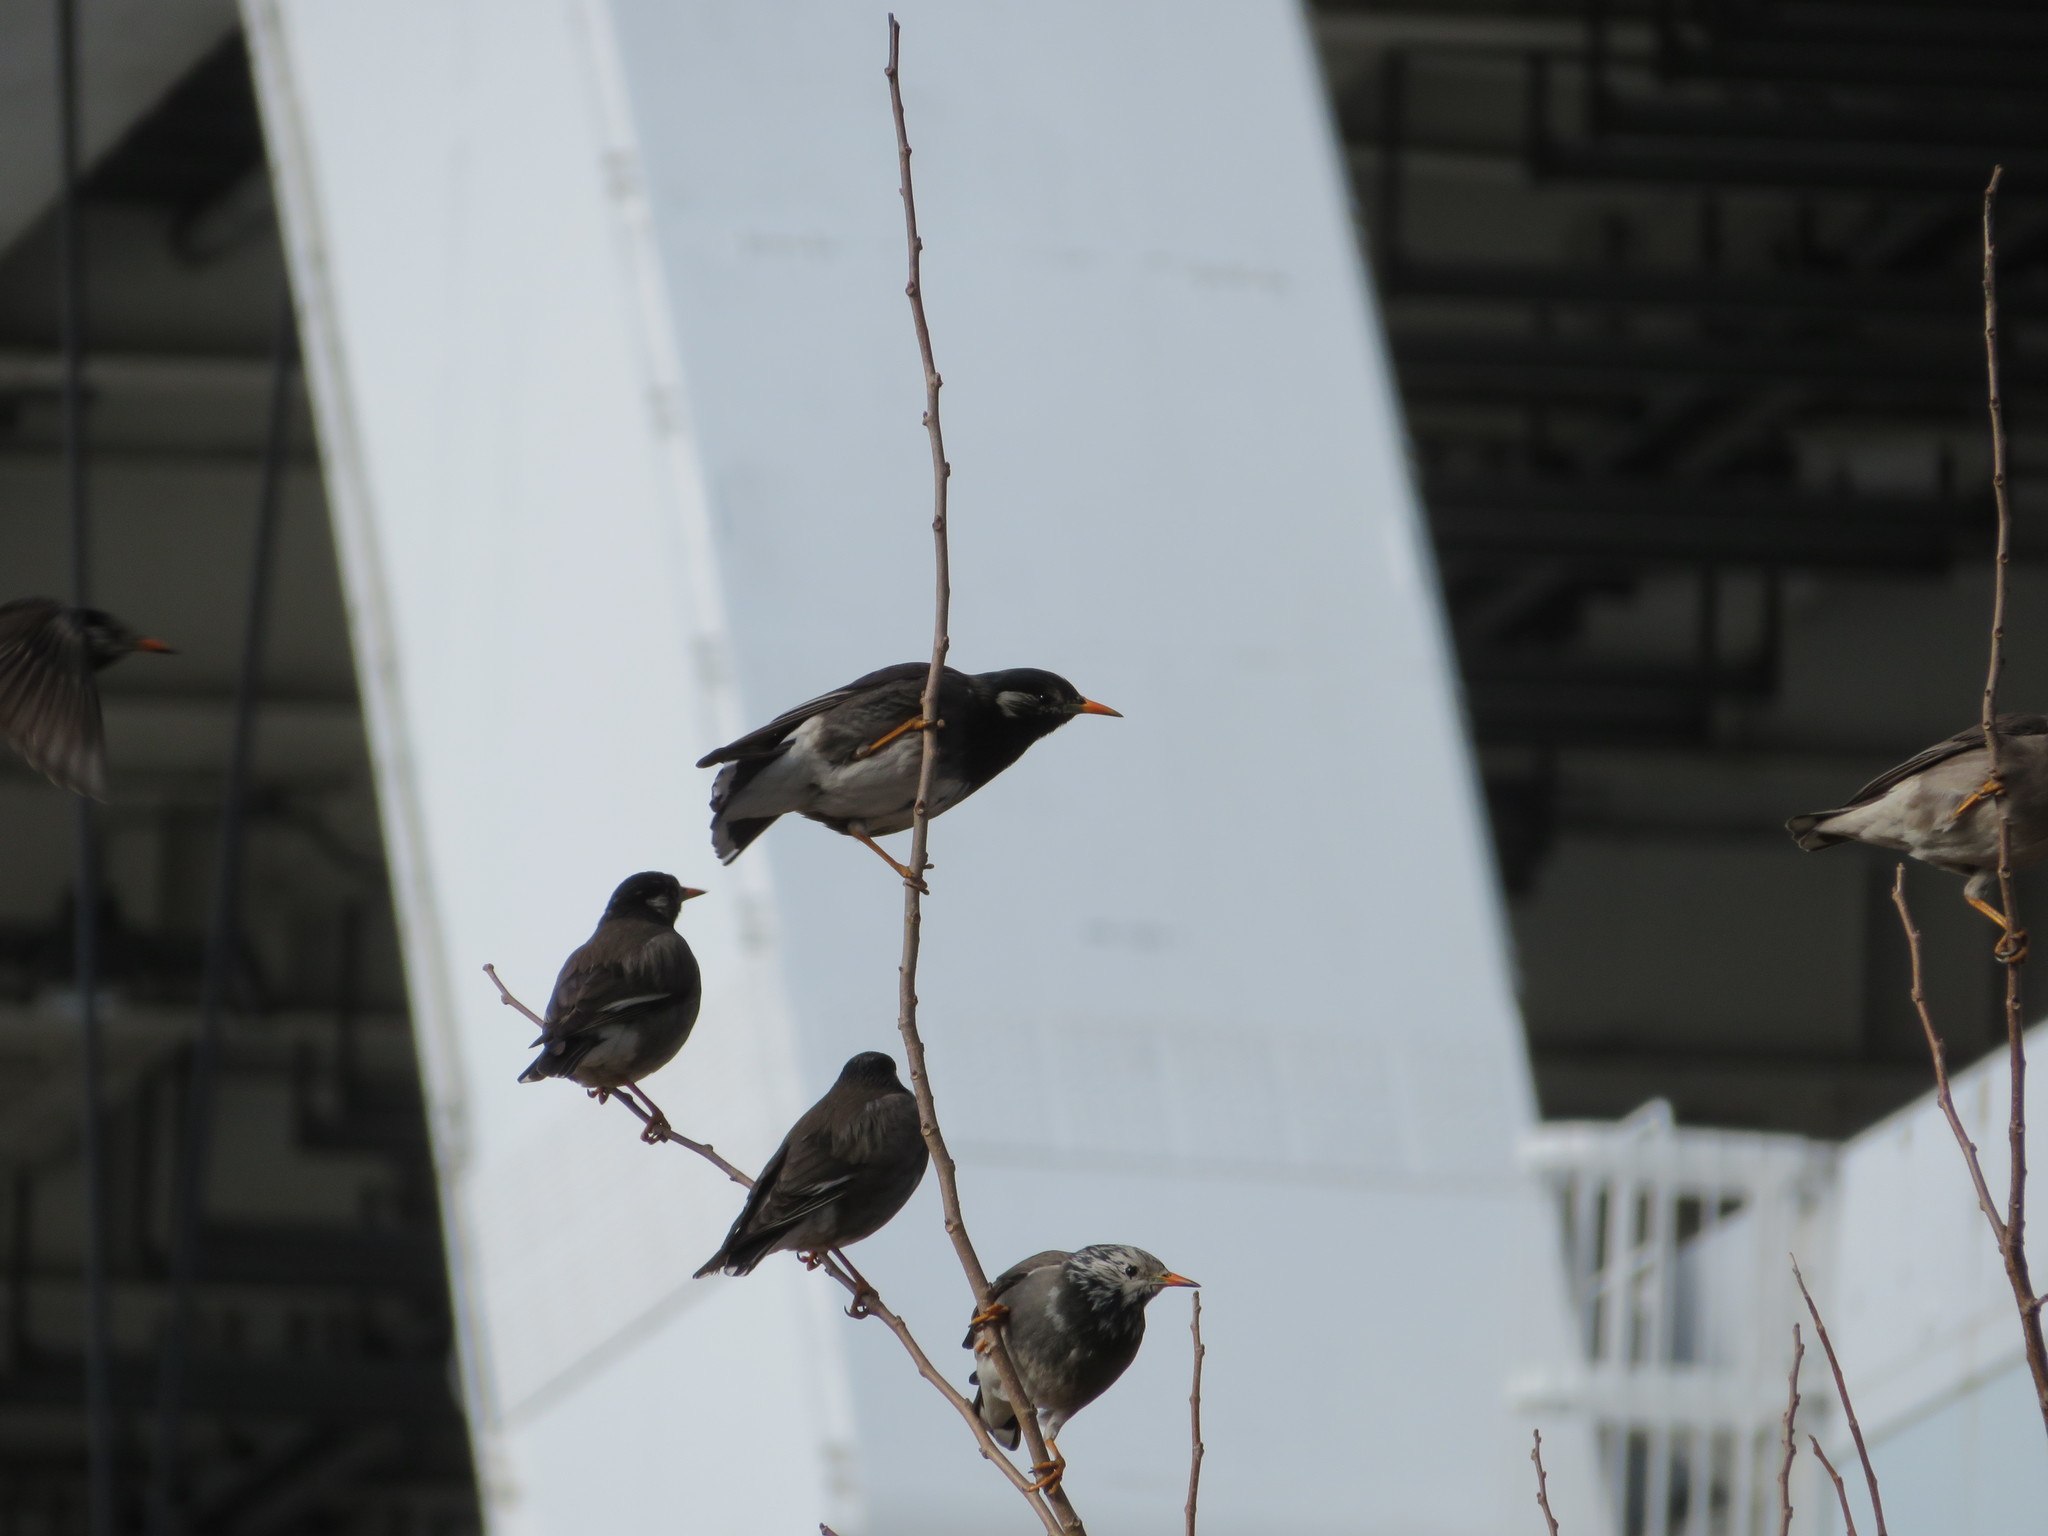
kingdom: Animalia
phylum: Chordata
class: Aves
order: Passeriformes
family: Sturnidae
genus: Spodiopsar
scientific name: Spodiopsar cineraceus
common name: White-cheeked starling
